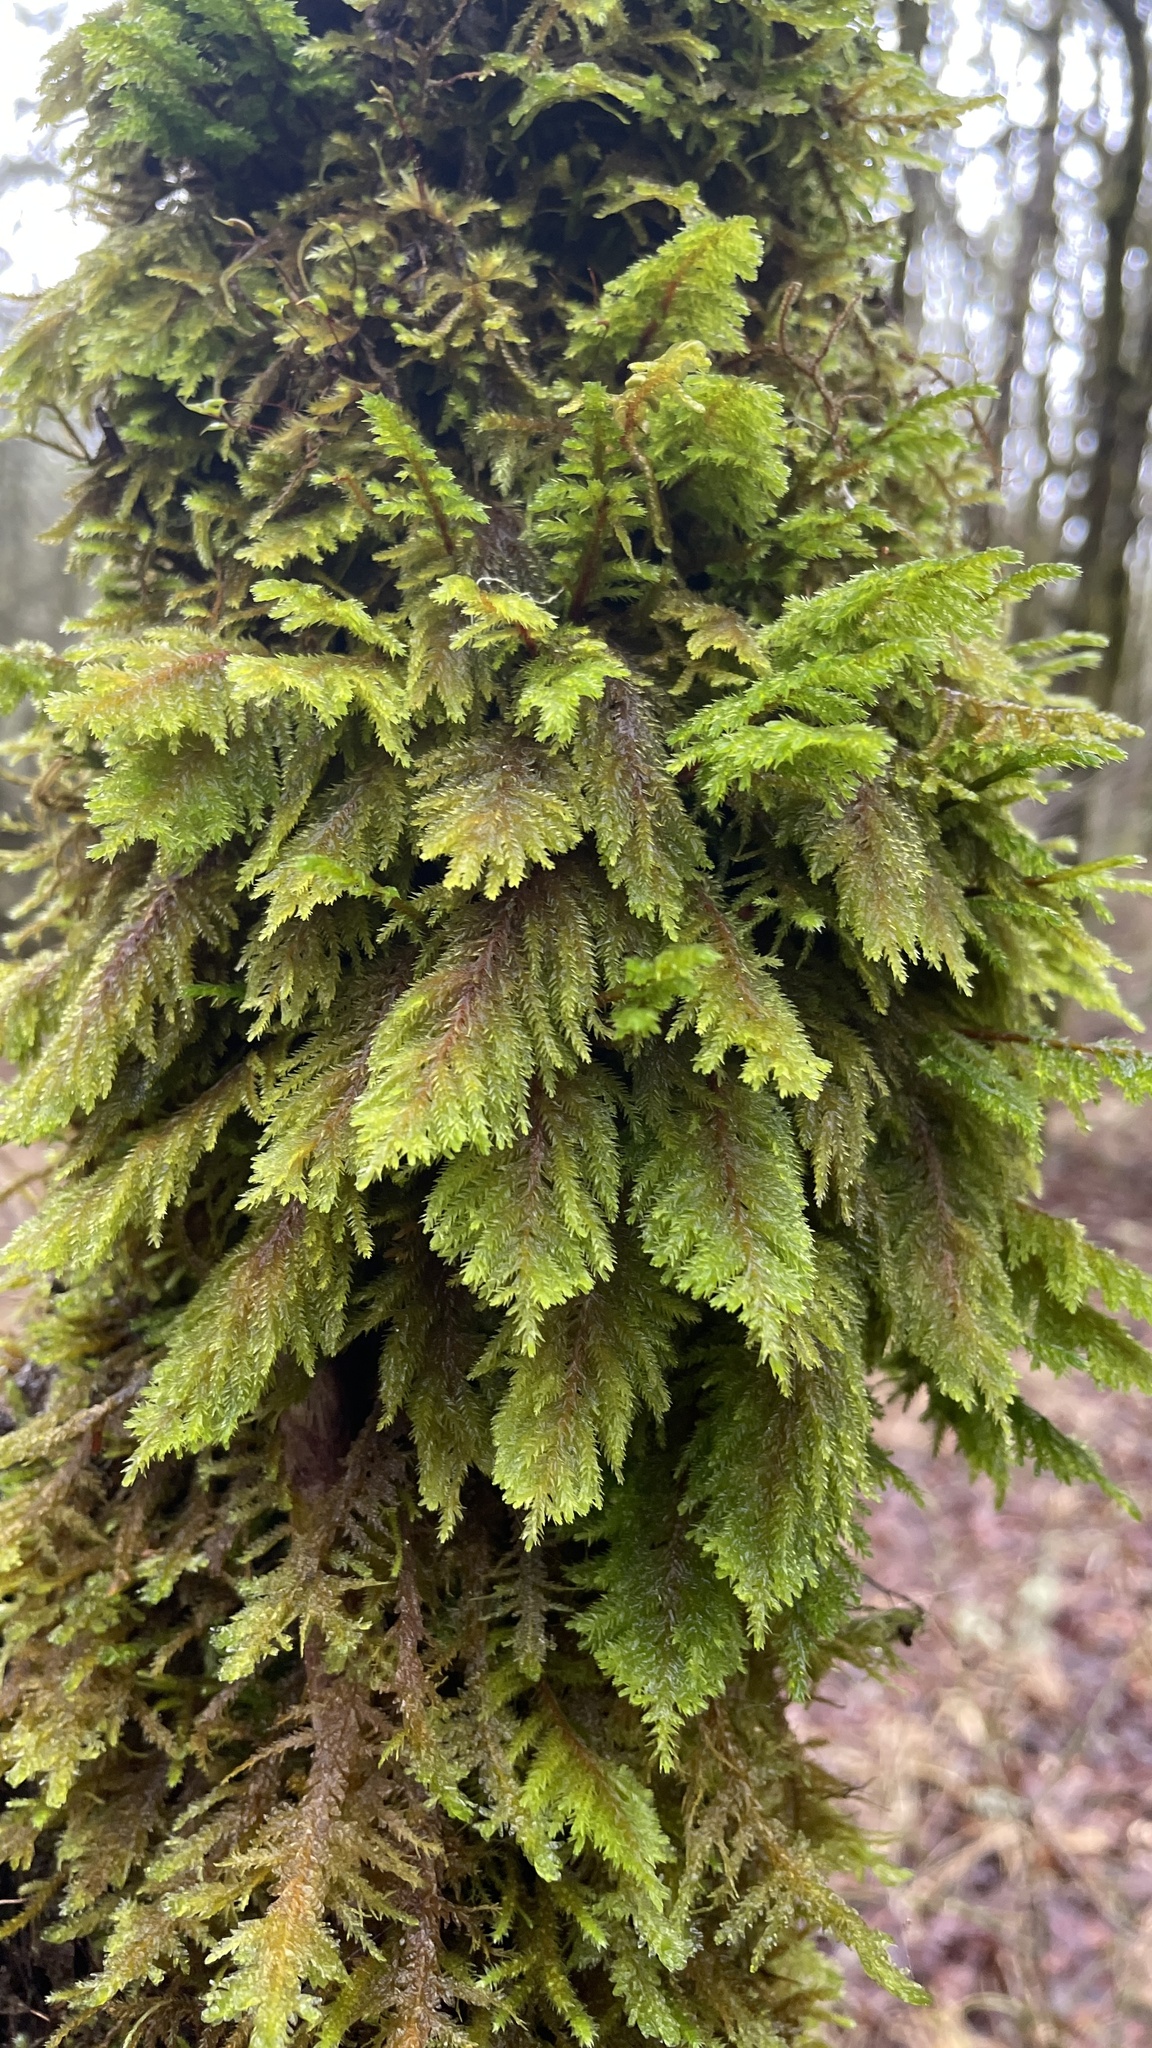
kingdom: Plantae
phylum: Bryophyta
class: Bryopsida
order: Hypnales
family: Cryphaeaceae
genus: Dendroalsia
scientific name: Dendroalsia abietina
